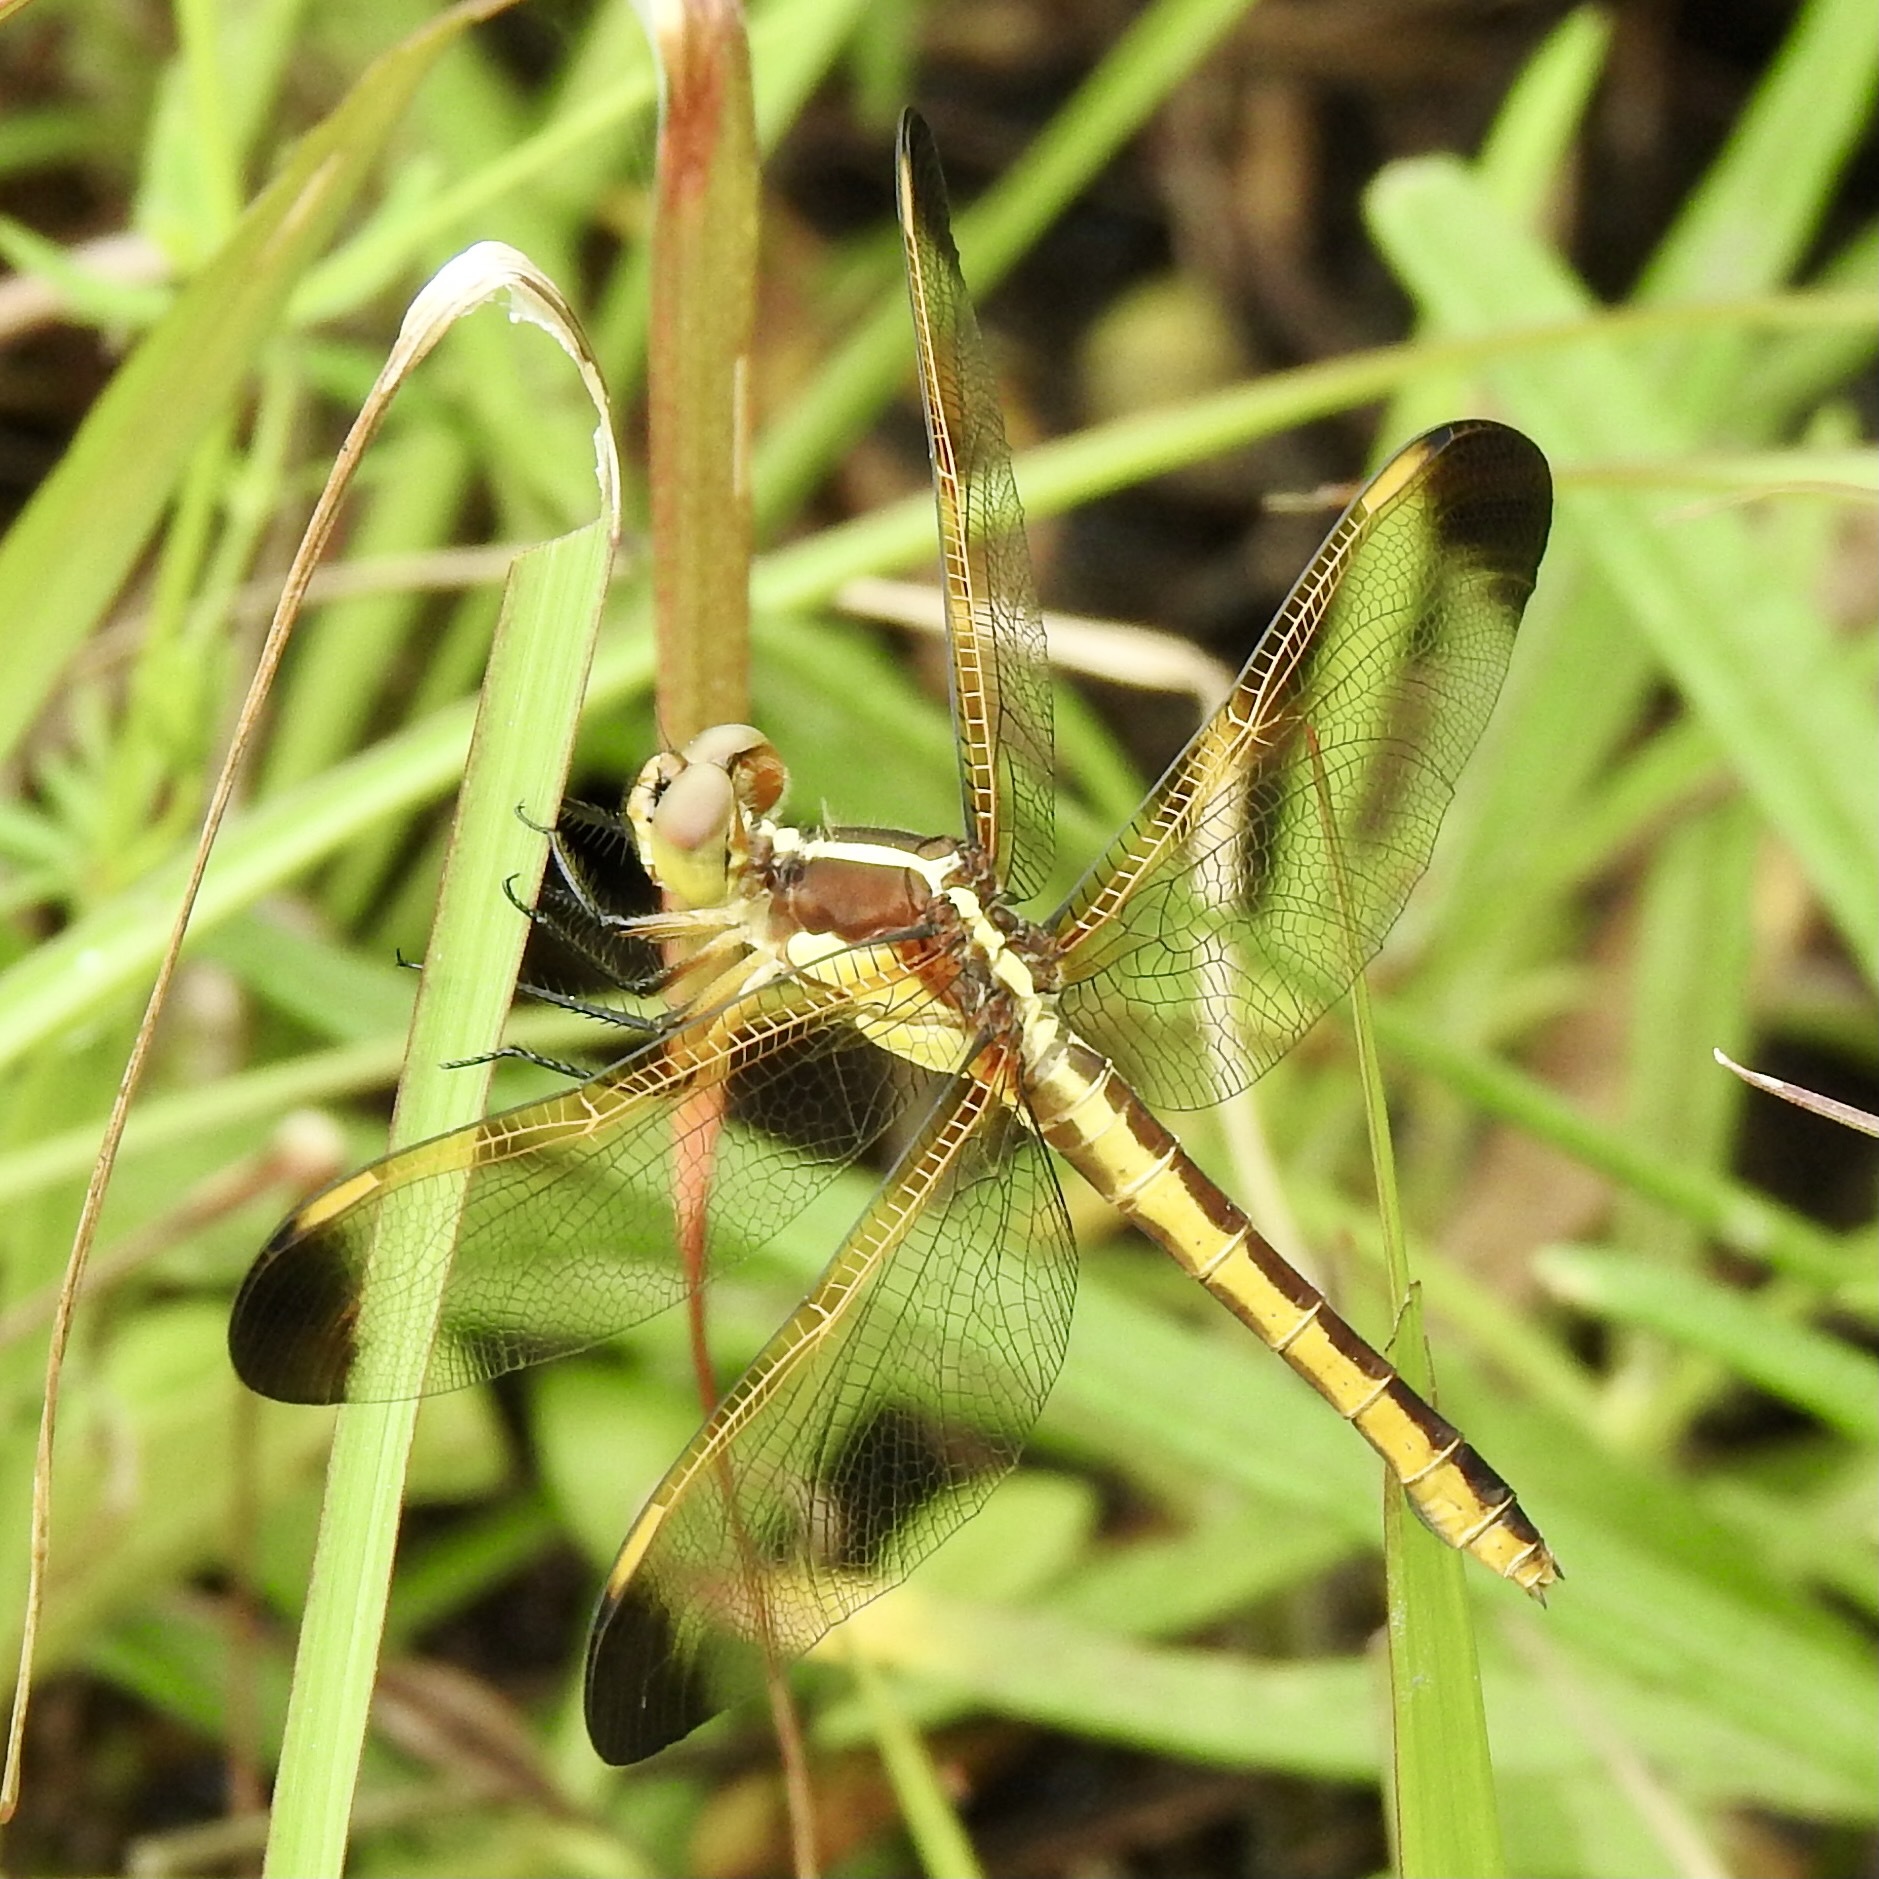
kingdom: Animalia
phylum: Arthropoda
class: Insecta
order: Odonata
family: Libellulidae
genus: Libellula
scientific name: Libellula flavida
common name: Yellow-sided skimmer
